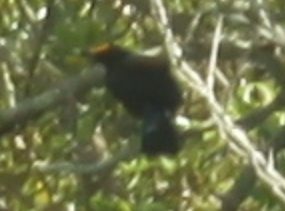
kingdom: Animalia
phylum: Chordata
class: Aves
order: Passeriformes
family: Meliphagidae
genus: Prosthemadera
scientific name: Prosthemadera novaeseelandiae
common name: Tui
